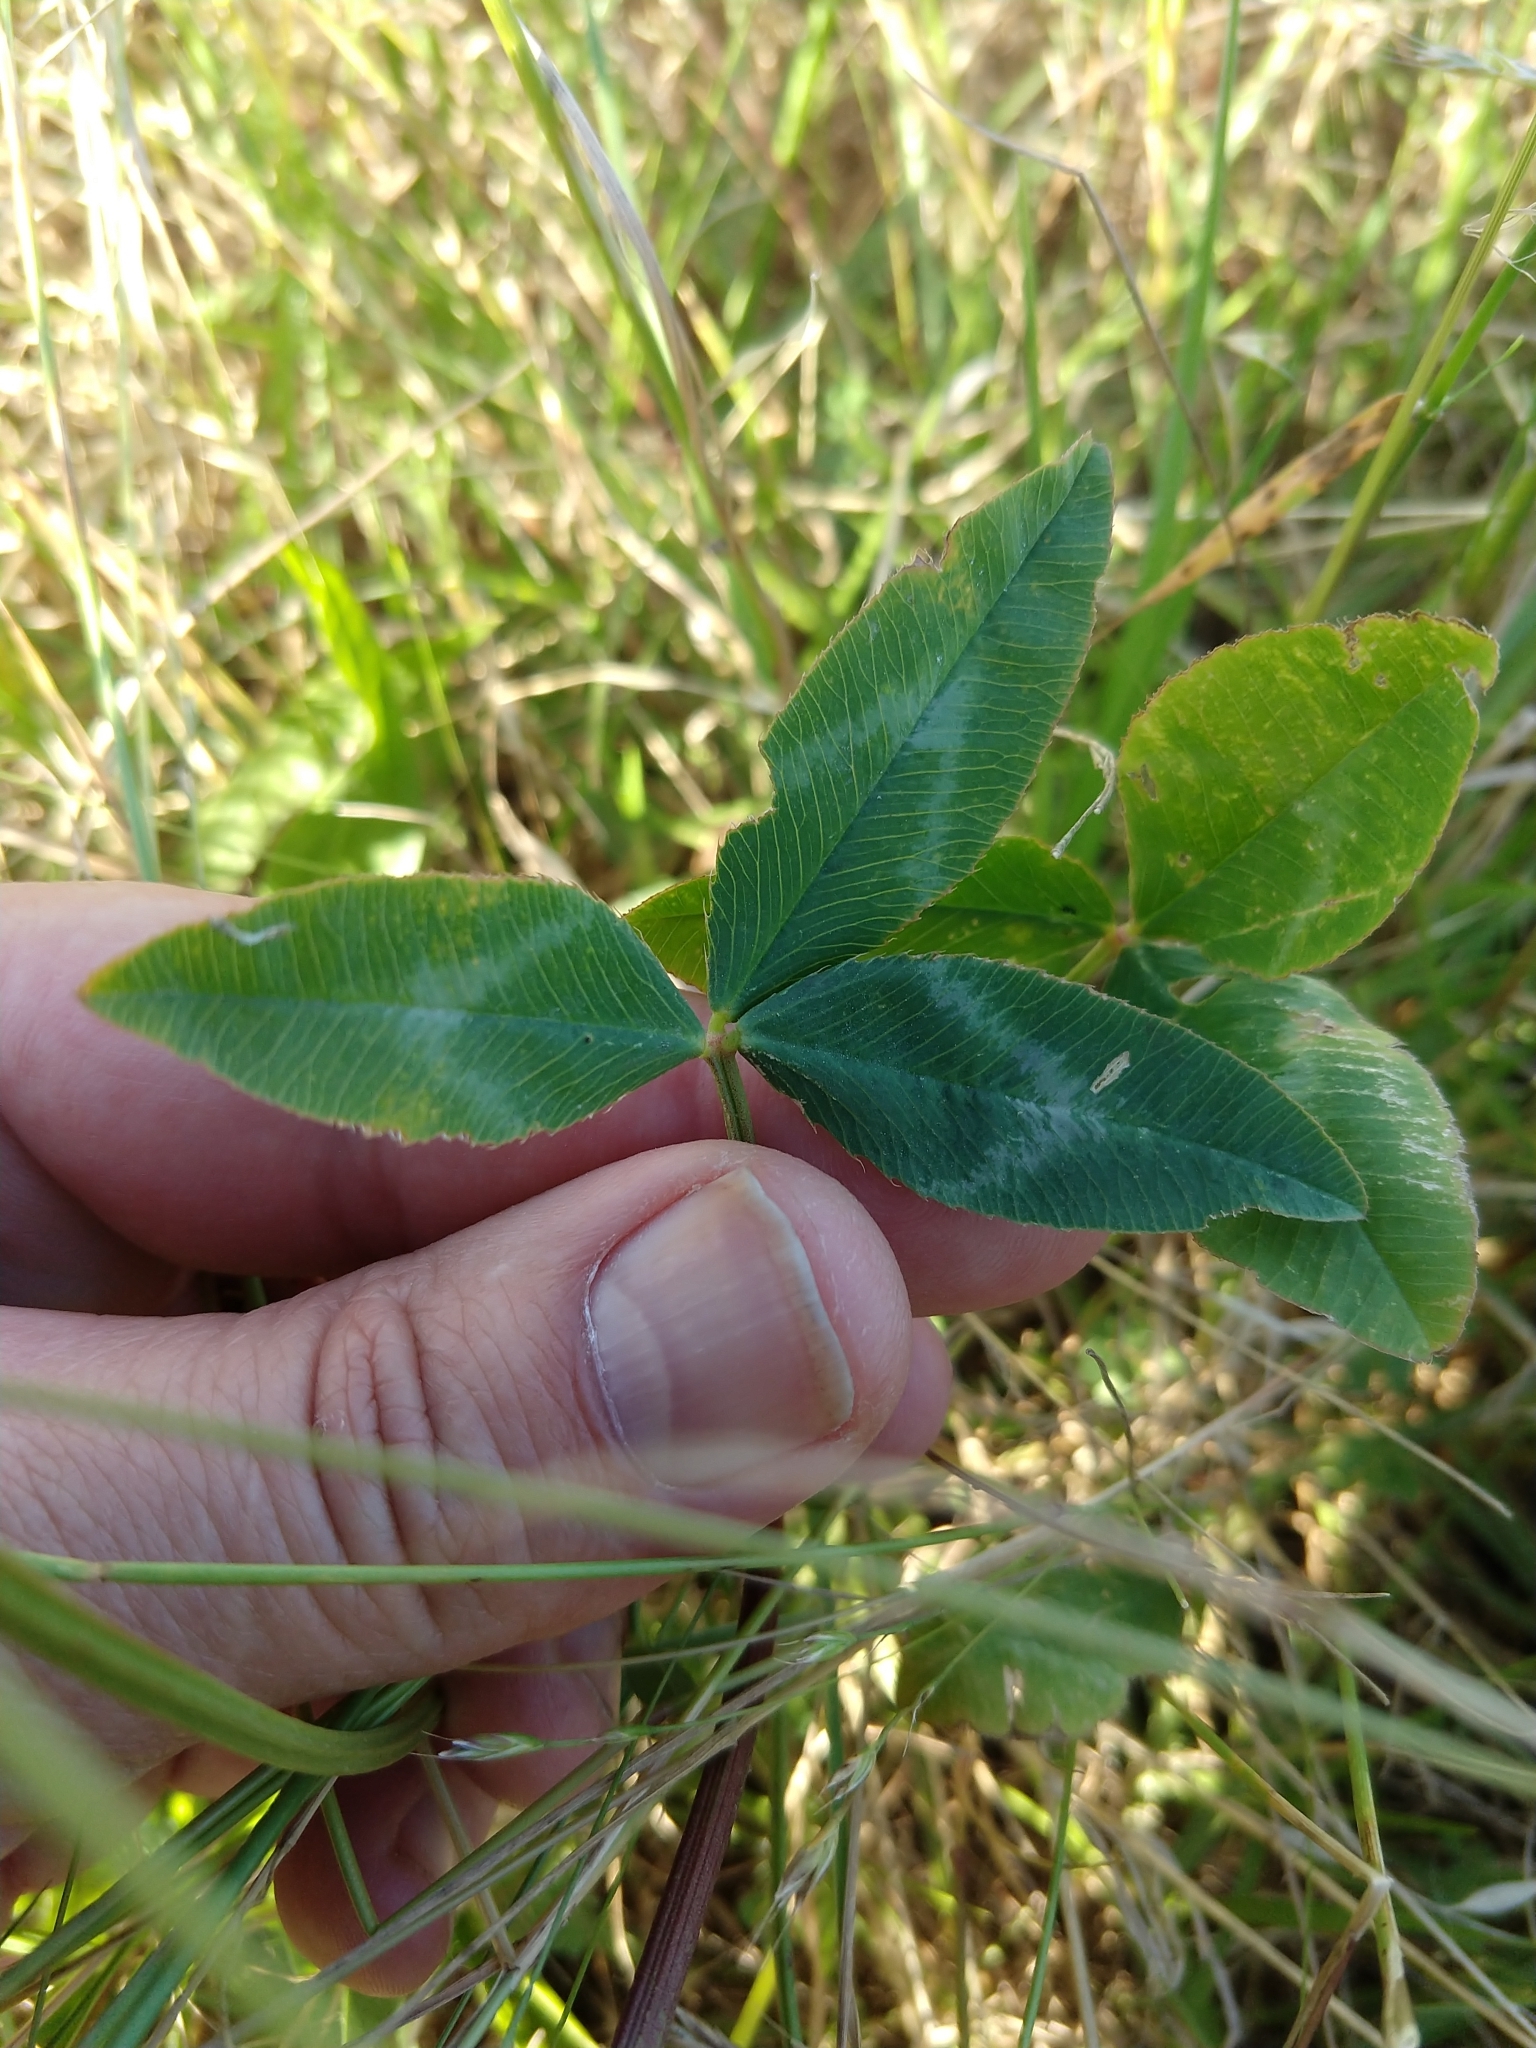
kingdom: Plantae
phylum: Tracheophyta
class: Magnoliopsida
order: Fabales
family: Fabaceae
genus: Trifolium
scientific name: Trifolium vesiculosum
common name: Arrowleaf clover
